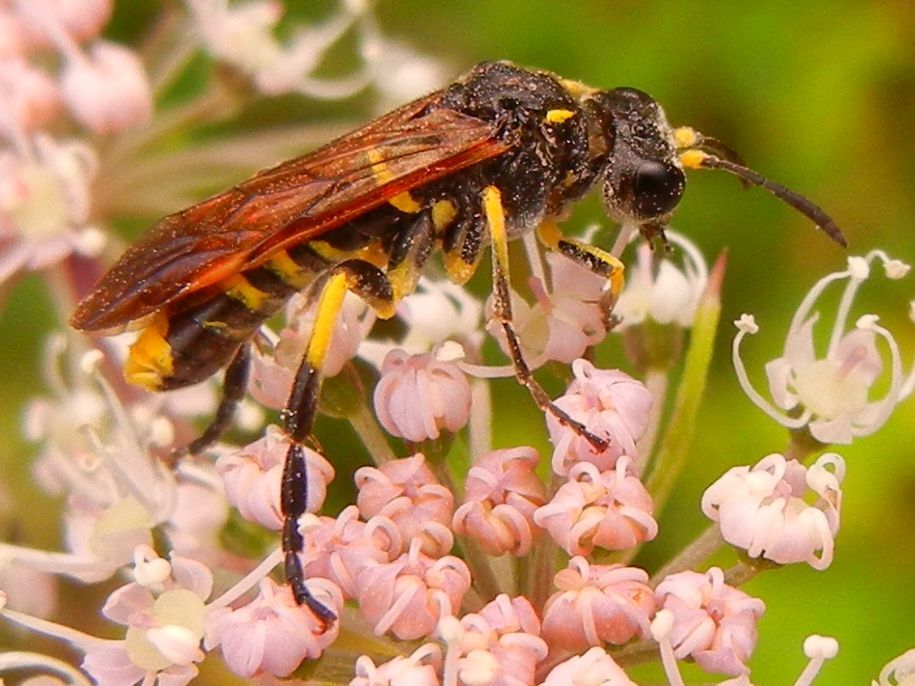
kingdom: Animalia
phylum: Arthropoda
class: Insecta
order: Hymenoptera
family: Tenthredinidae
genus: Tenthredo
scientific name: Tenthredo thompsoni
